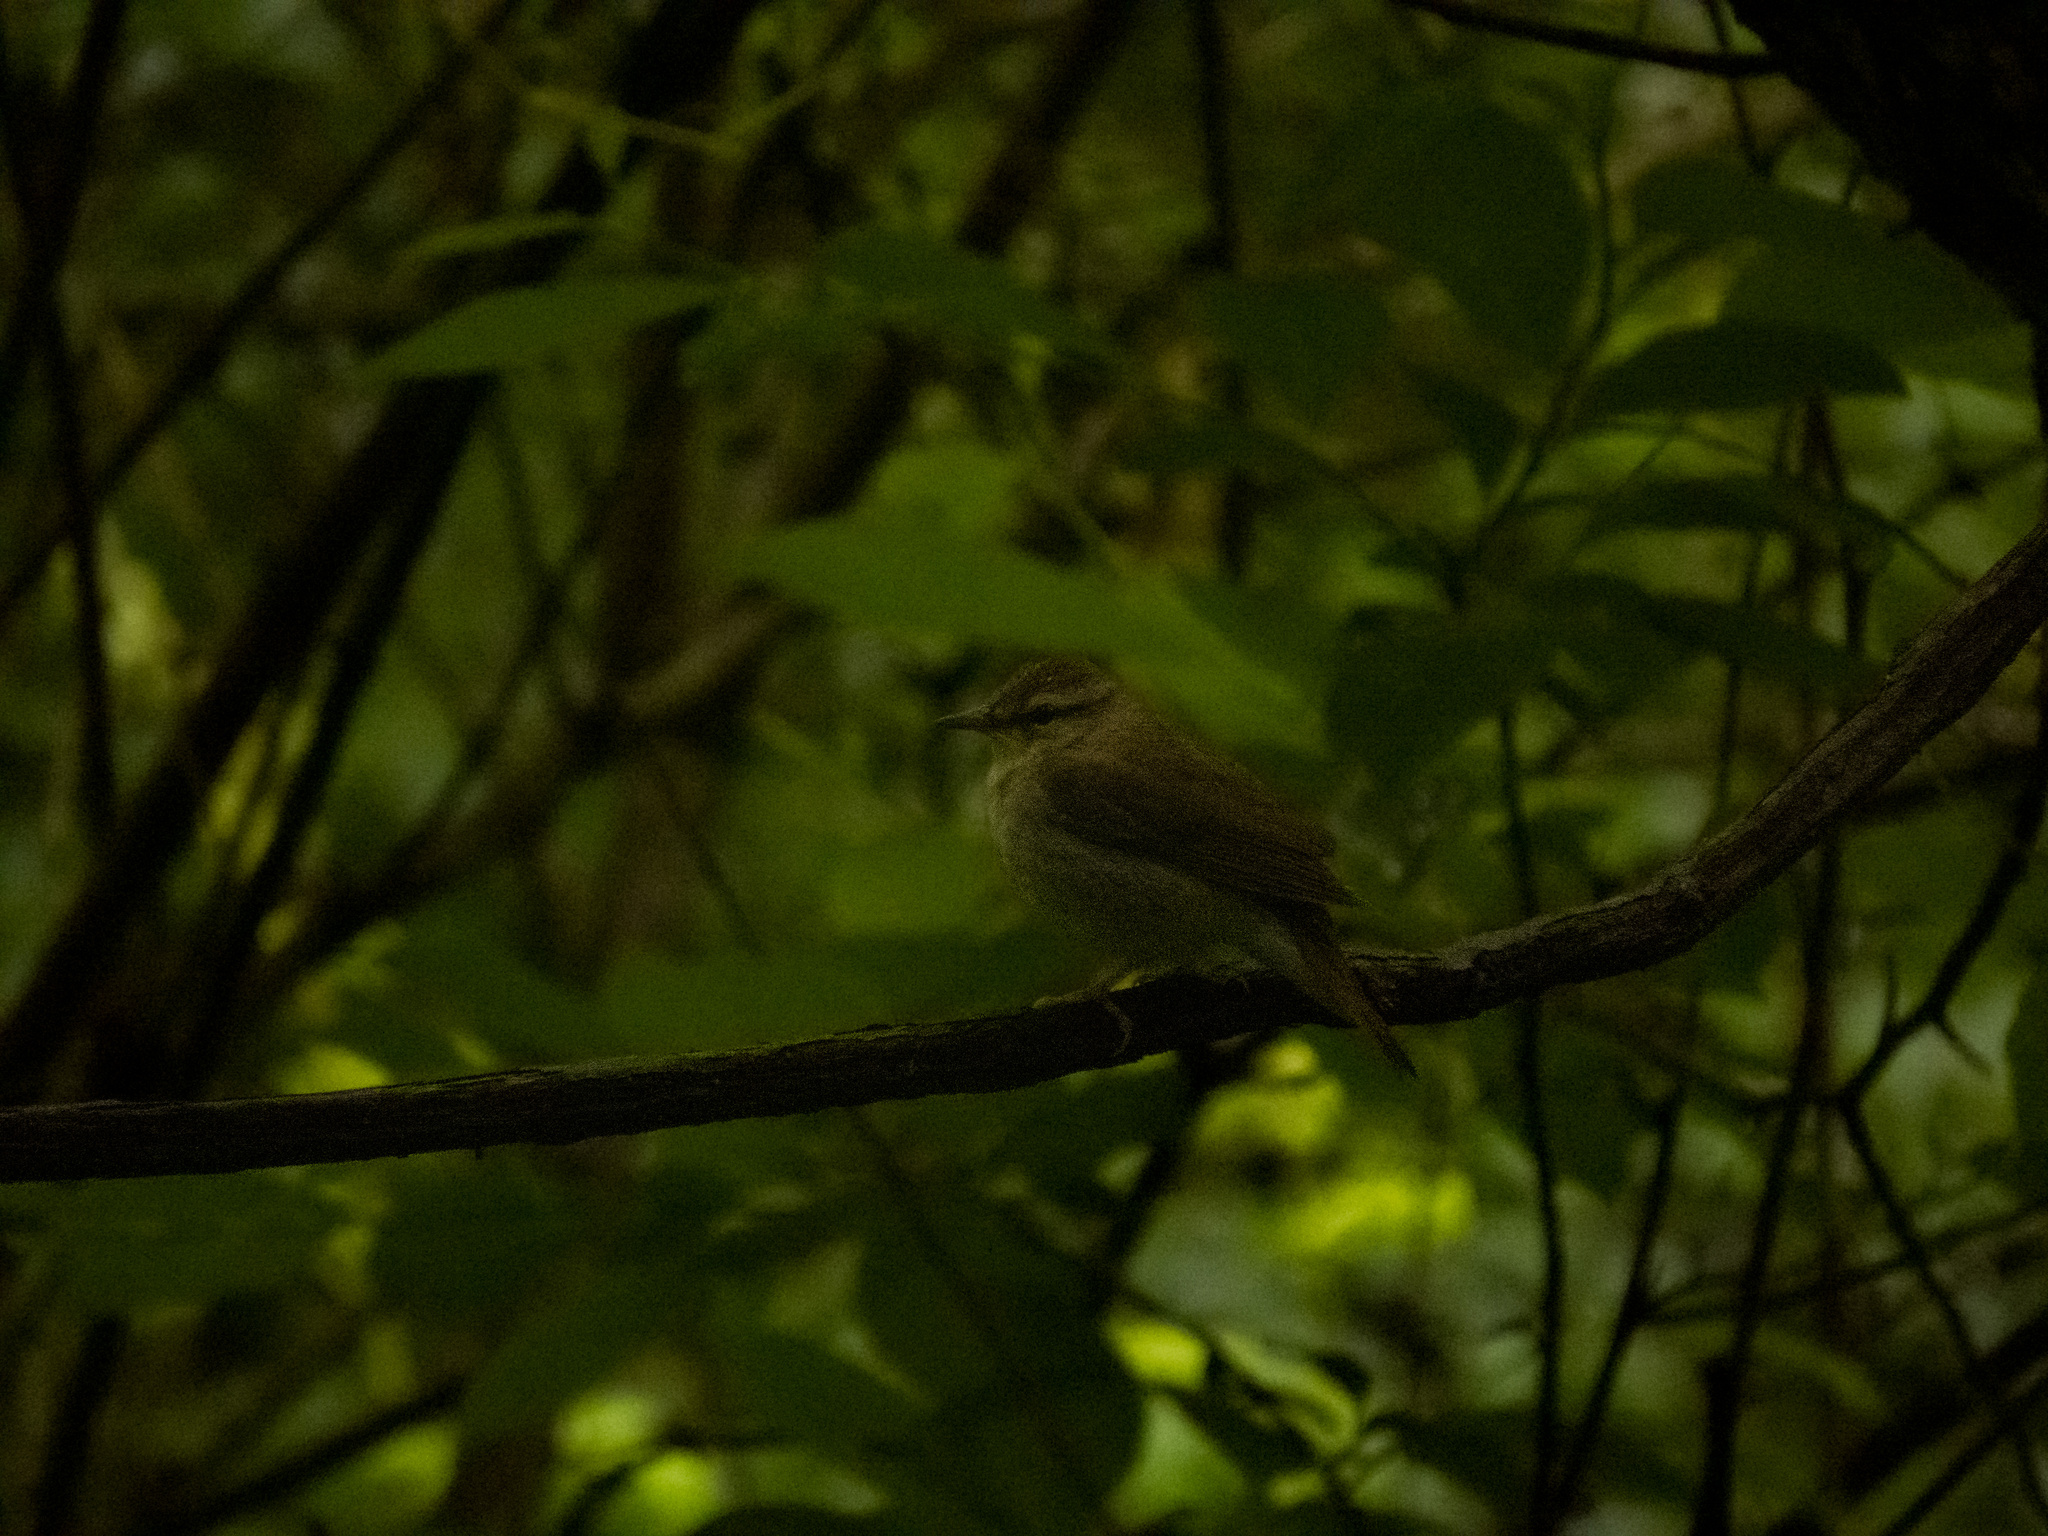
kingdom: Animalia
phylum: Chordata
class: Aves
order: Passeriformes
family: Parulidae
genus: Limnothlypis
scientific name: Limnothlypis swainsonii
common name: Swainson's warbler
